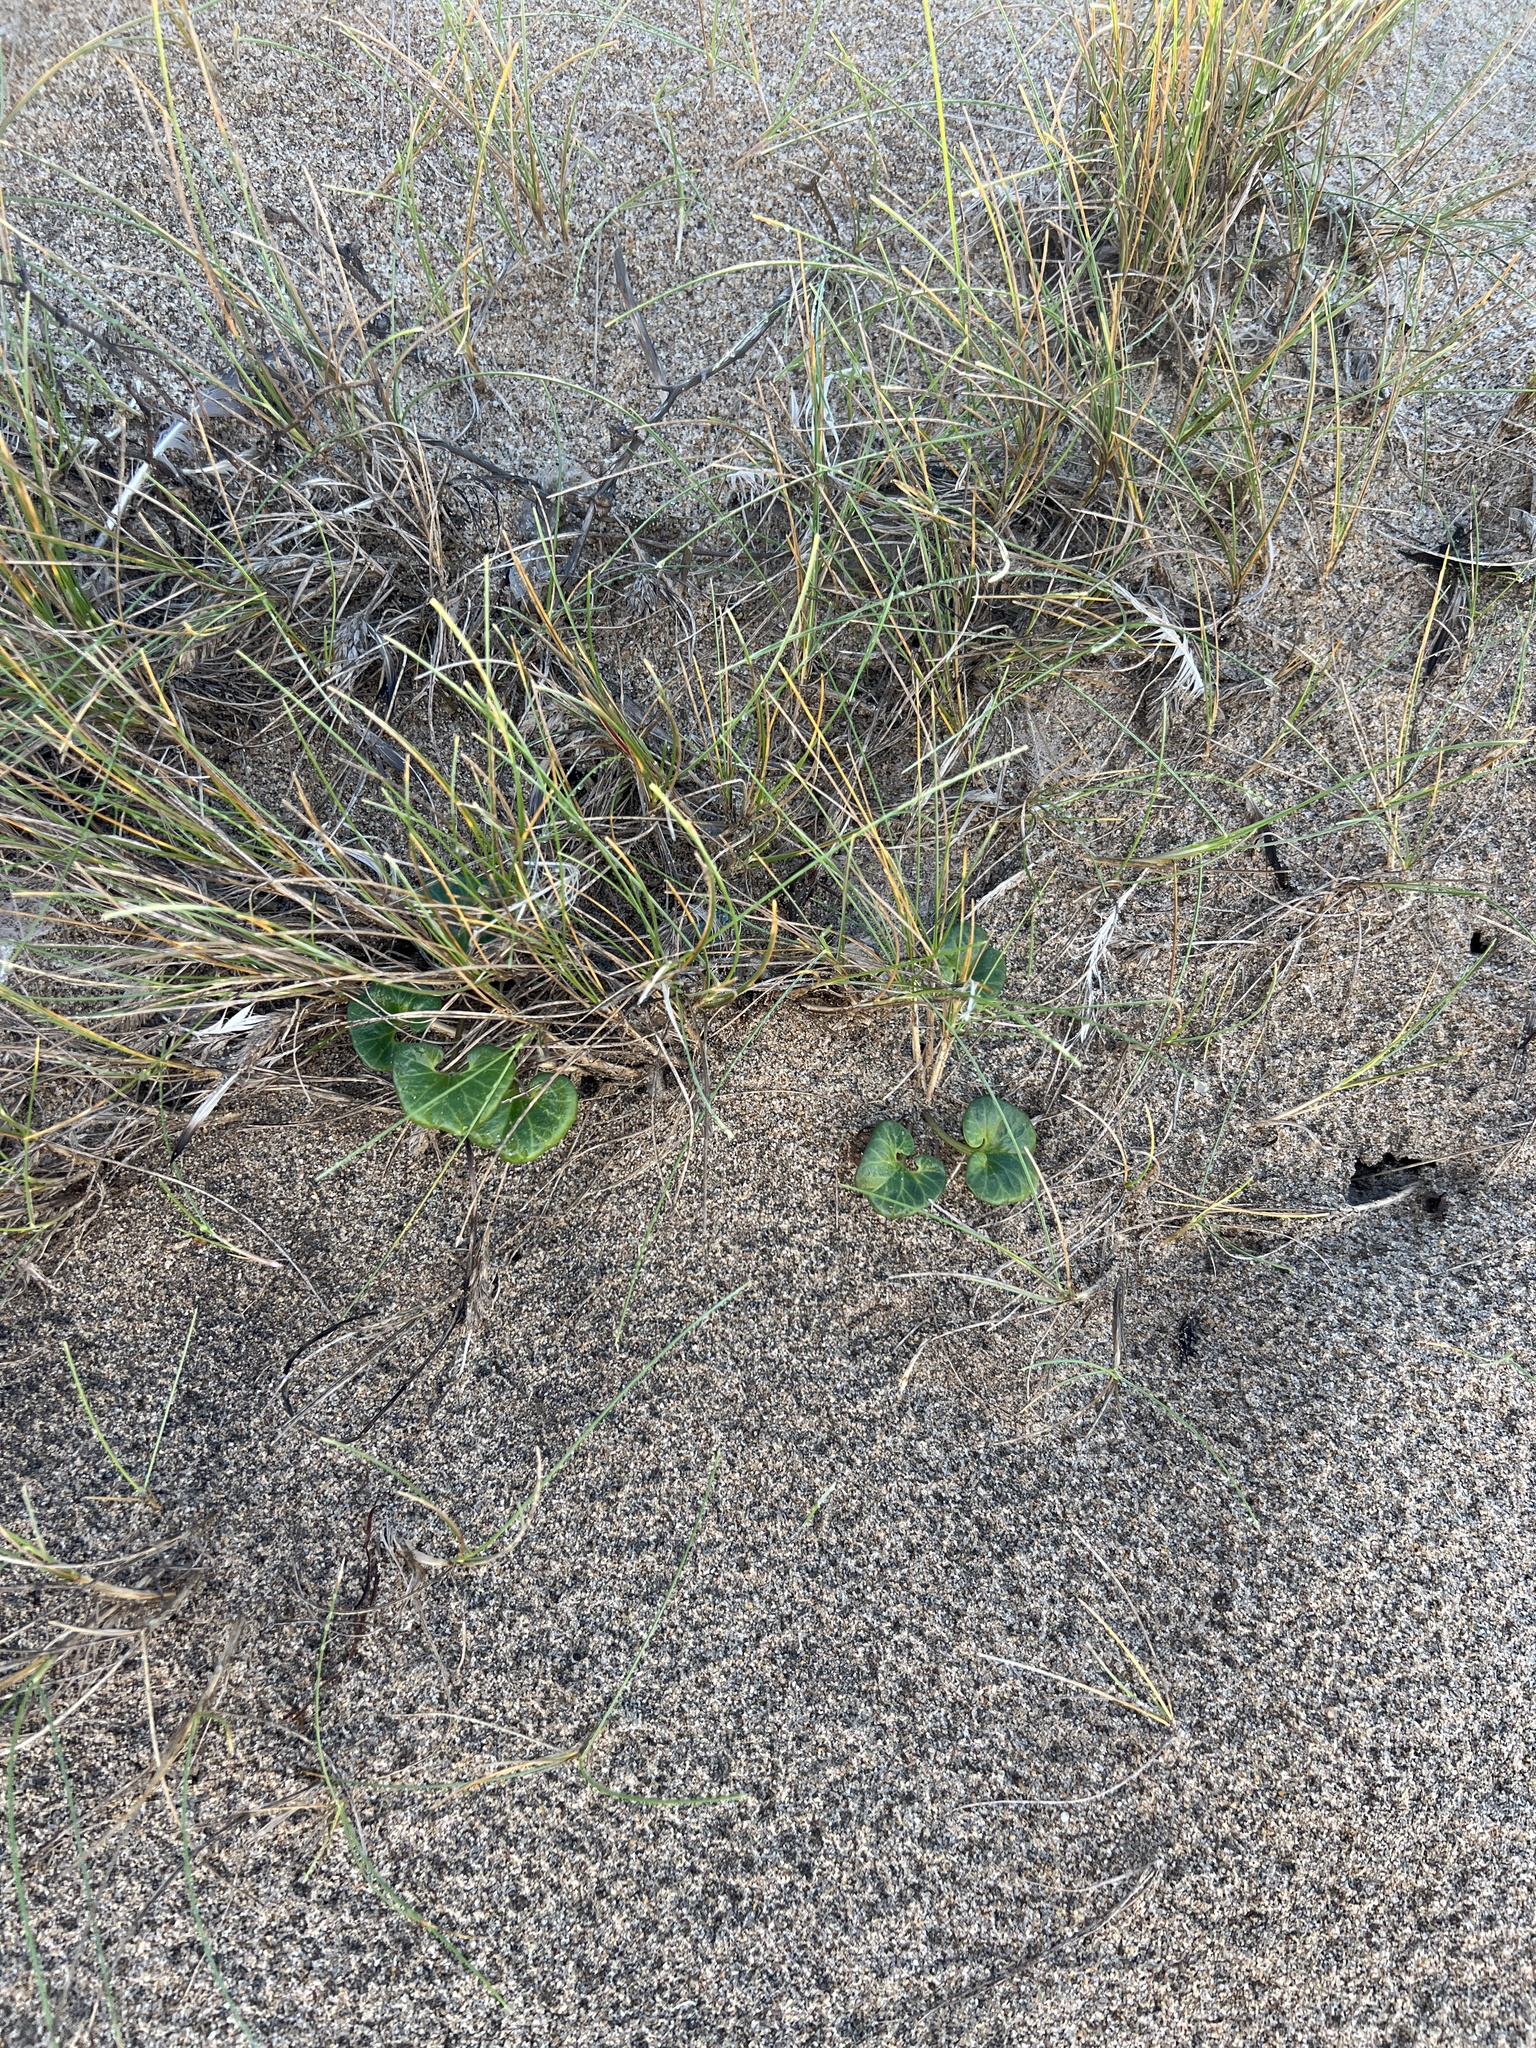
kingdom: Plantae
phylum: Tracheophyta
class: Magnoliopsida
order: Solanales
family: Convolvulaceae
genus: Calystegia
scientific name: Calystegia soldanella
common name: Sea bindweed
